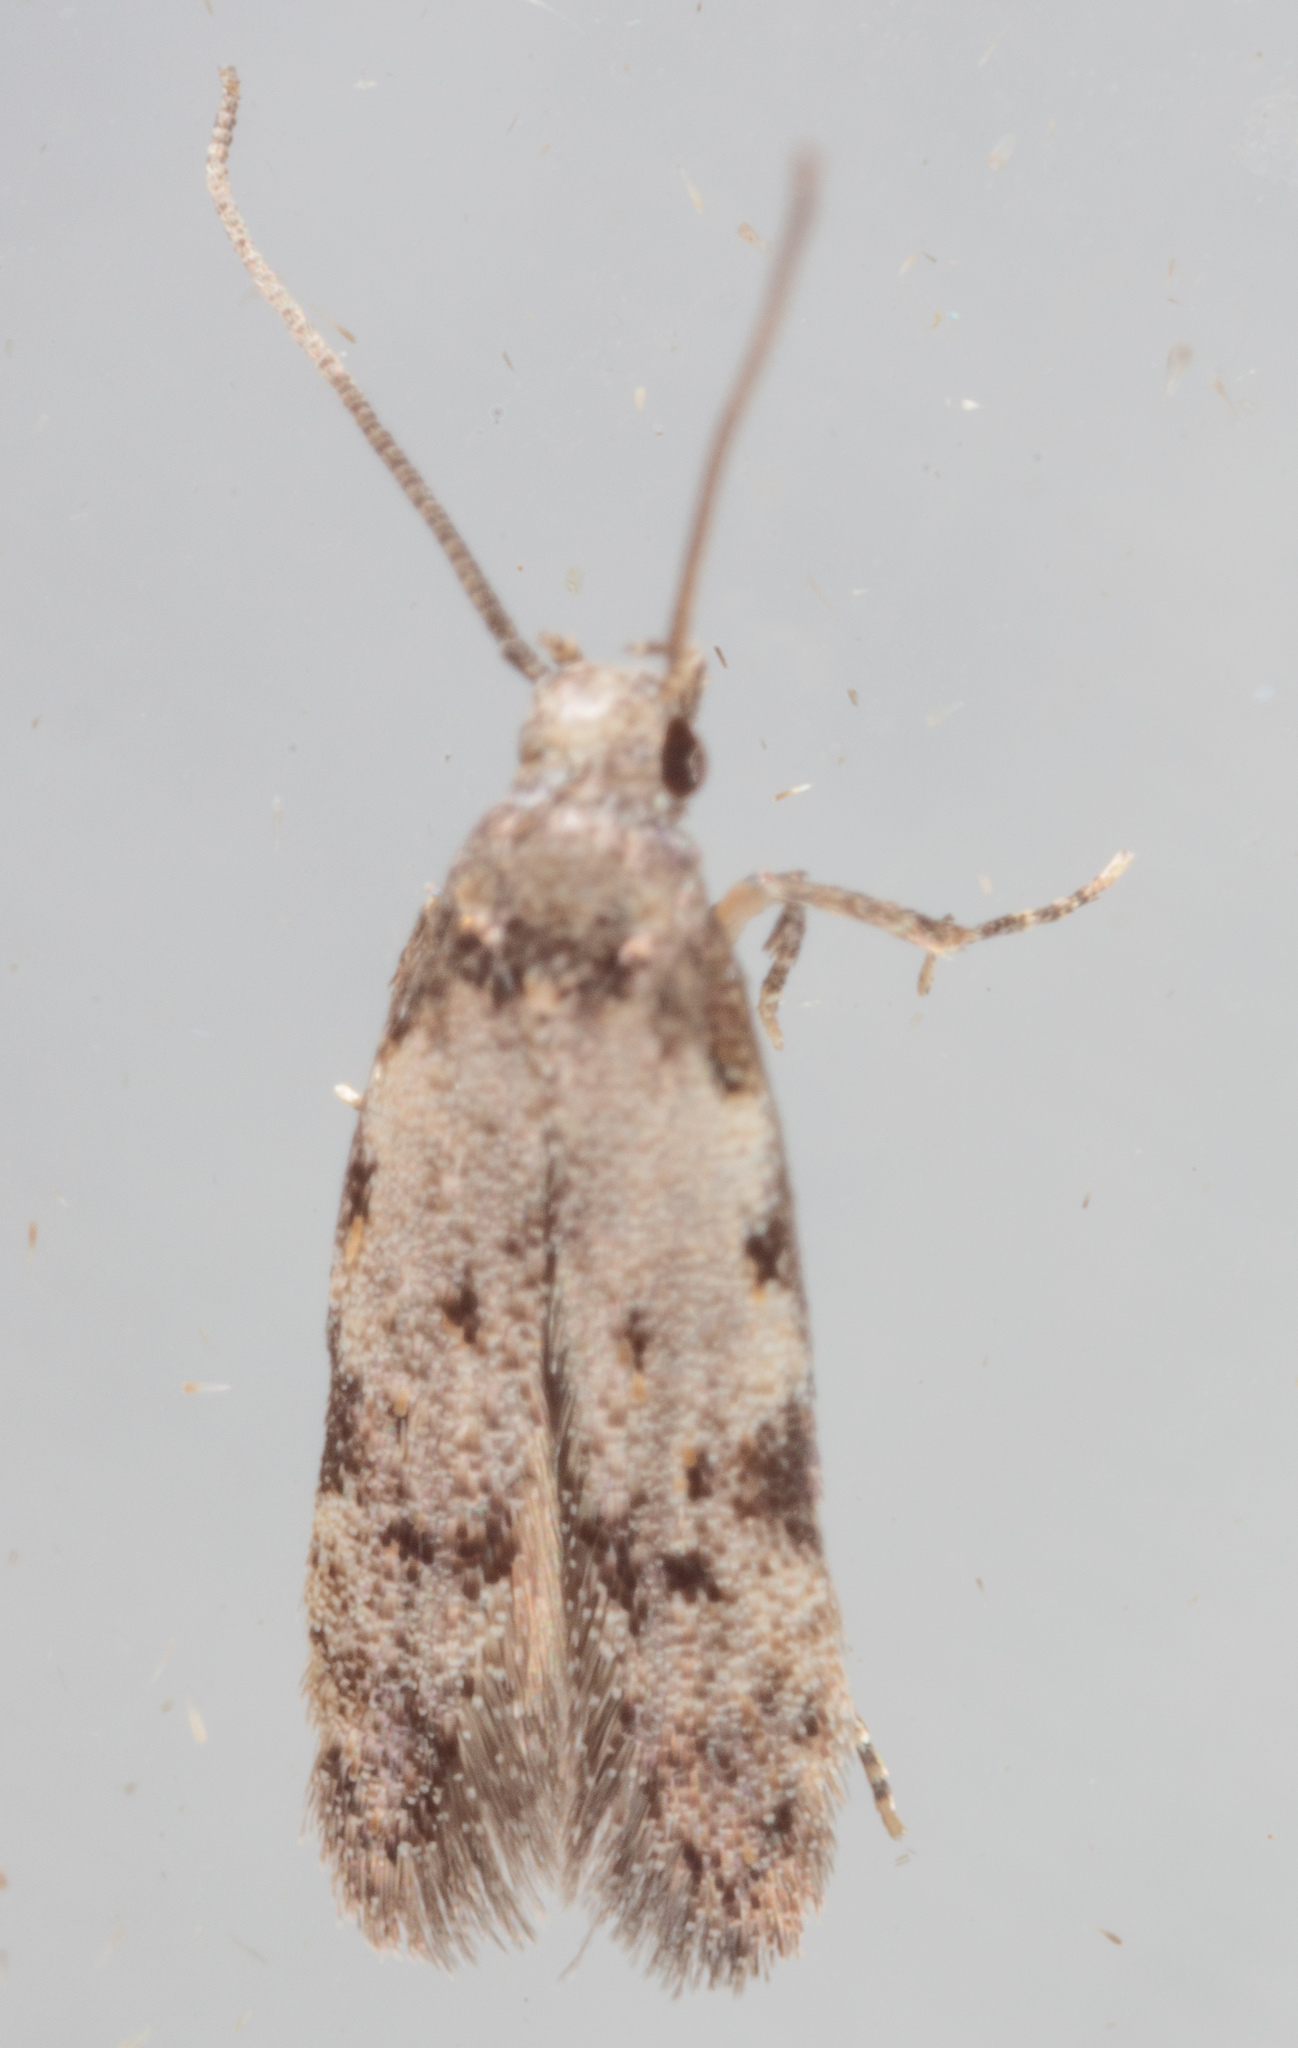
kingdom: Animalia
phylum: Arthropoda
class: Insecta
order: Lepidoptera
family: Autostichidae
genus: Taygete
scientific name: Taygete attributella
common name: Triangle-marked twirler moth
